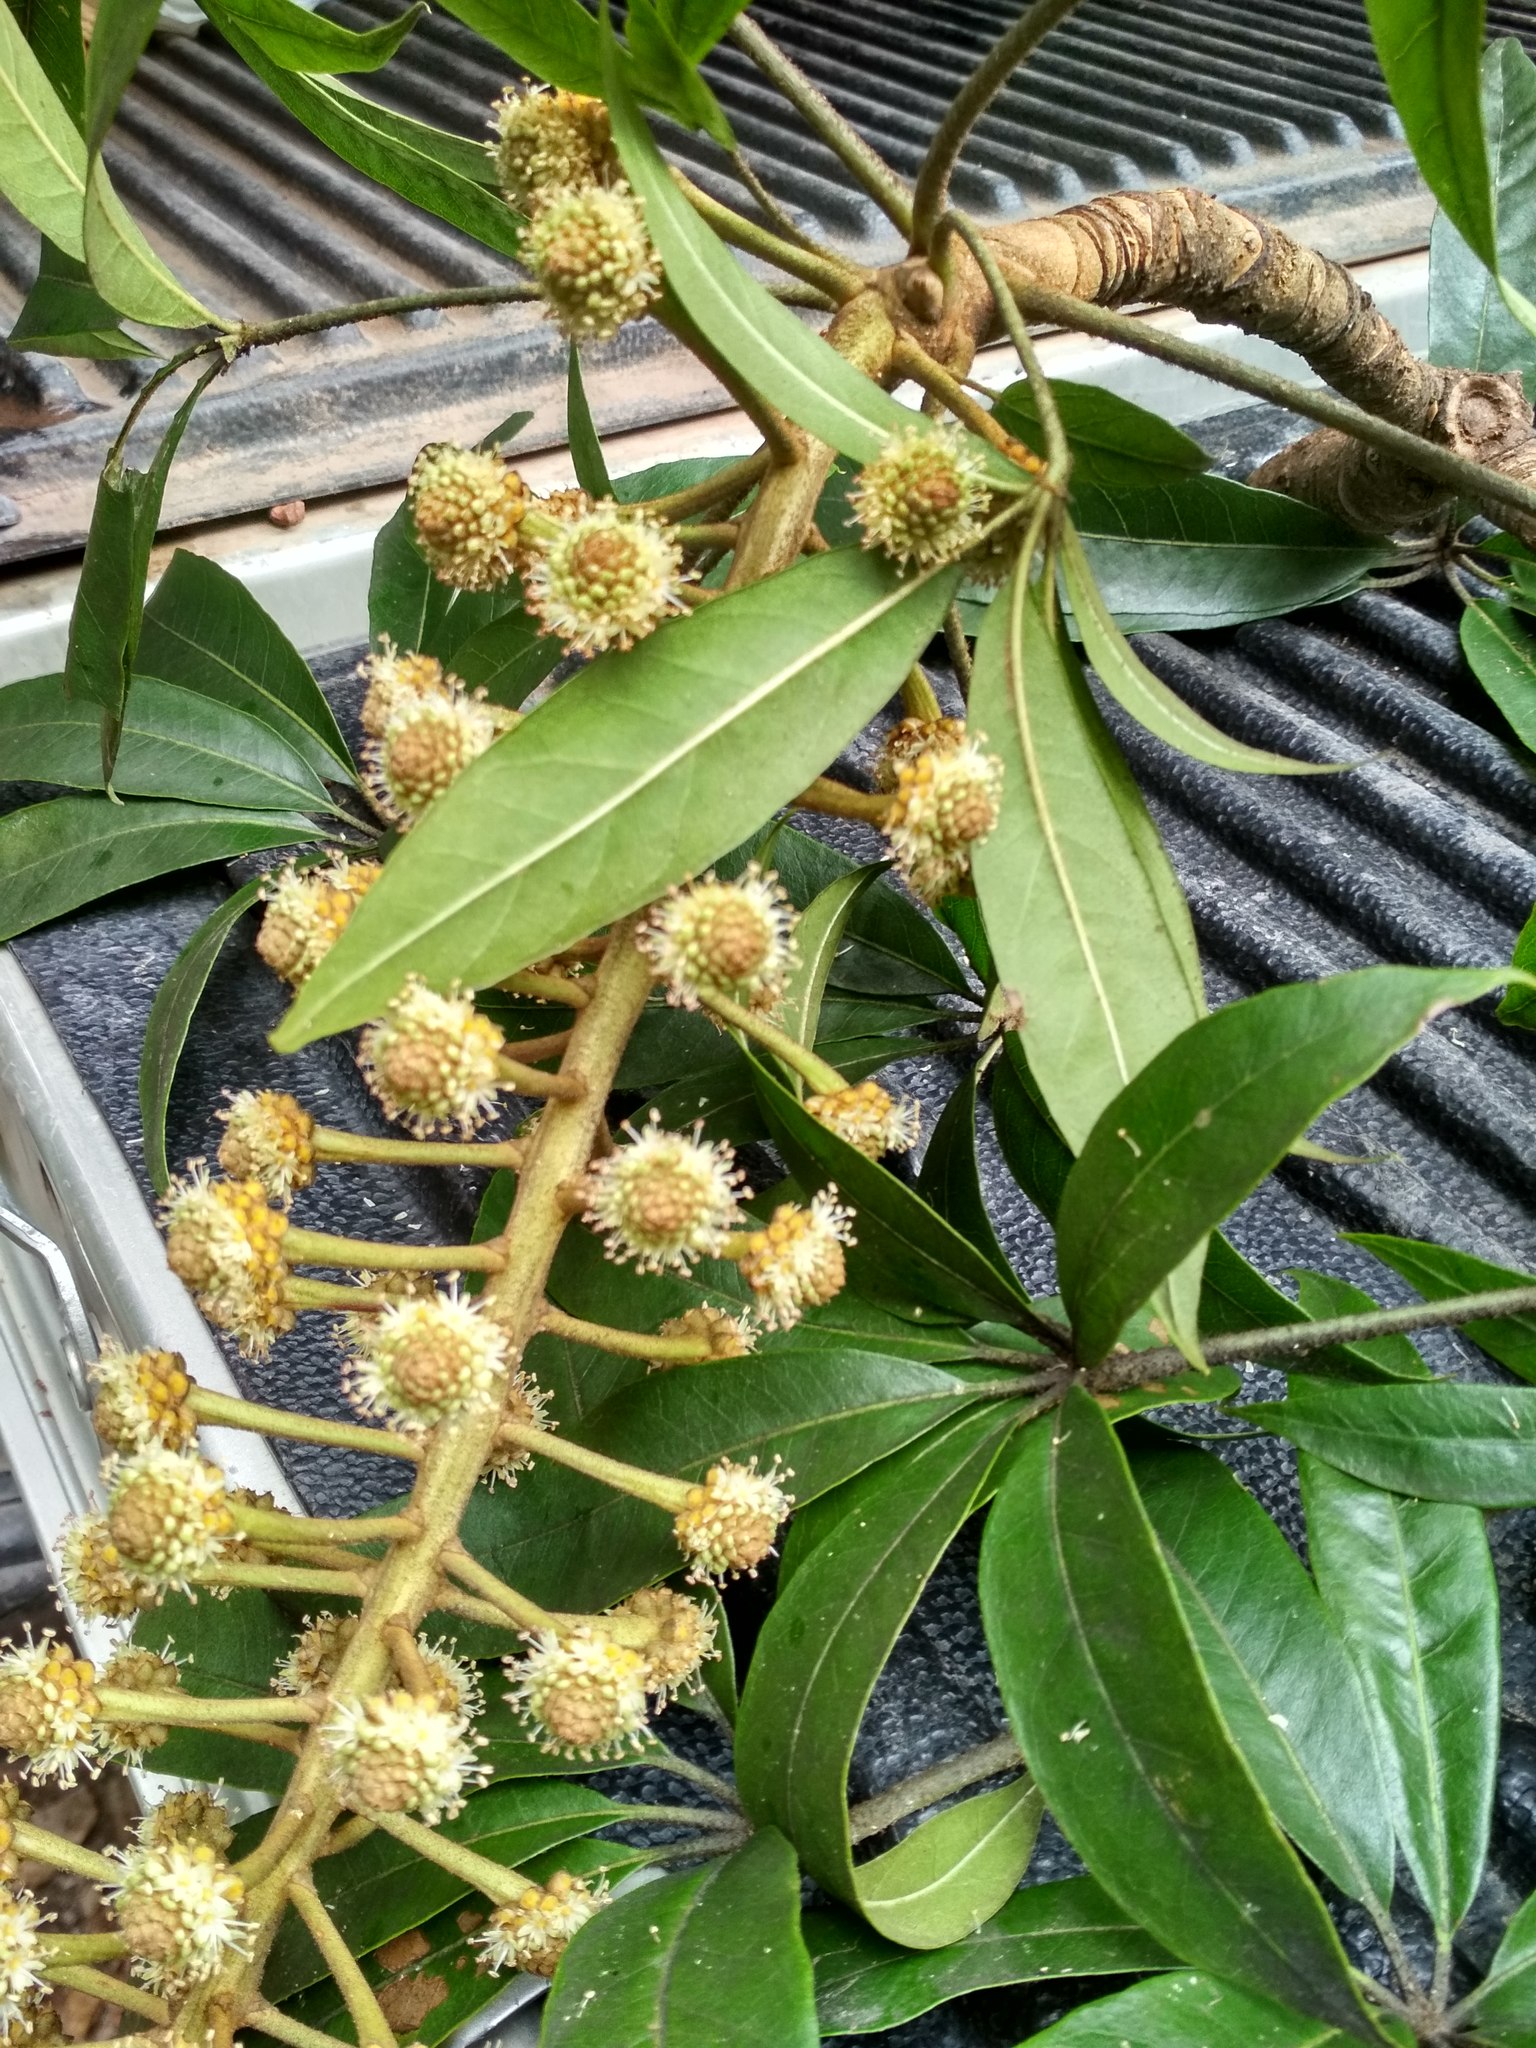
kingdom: Plantae
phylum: Tracheophyta
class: Magnoliopsida
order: Apiales
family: Araliaceae
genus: Oreopanax
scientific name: Oreopanax xalapensis
